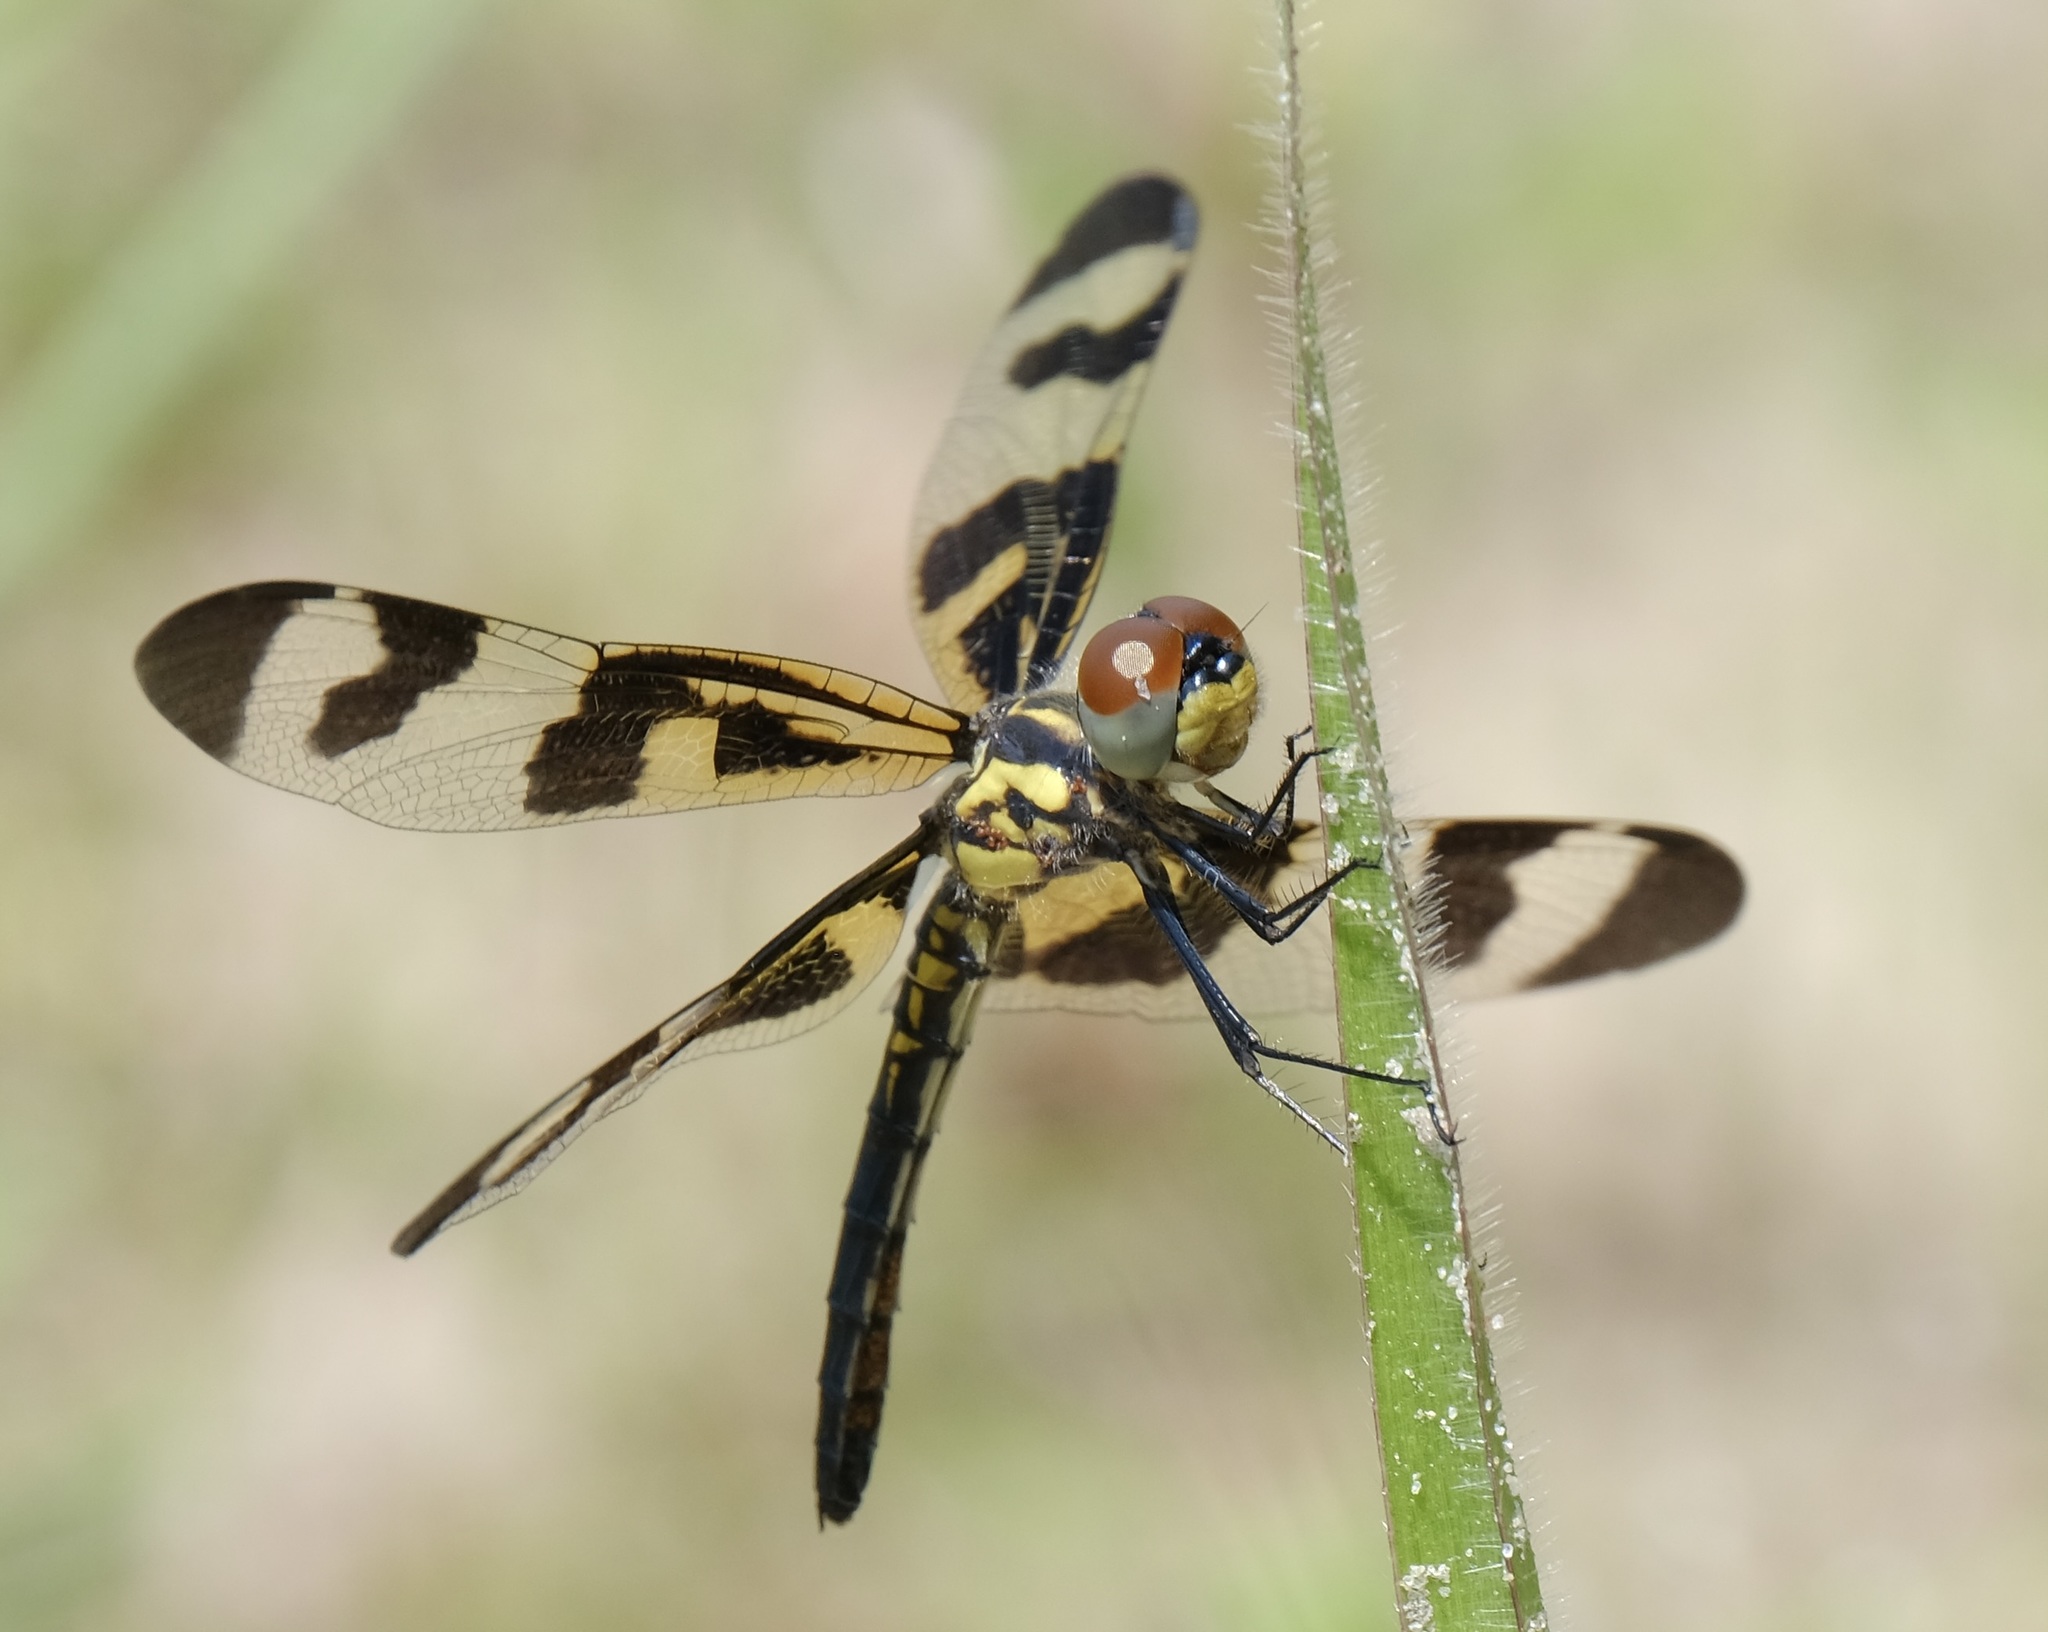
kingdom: Animalia
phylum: Arthropoda
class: Insecta
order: Odonata
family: Libellulidae
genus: Celithemis
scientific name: Celithemis fasciata
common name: Banded pennant
